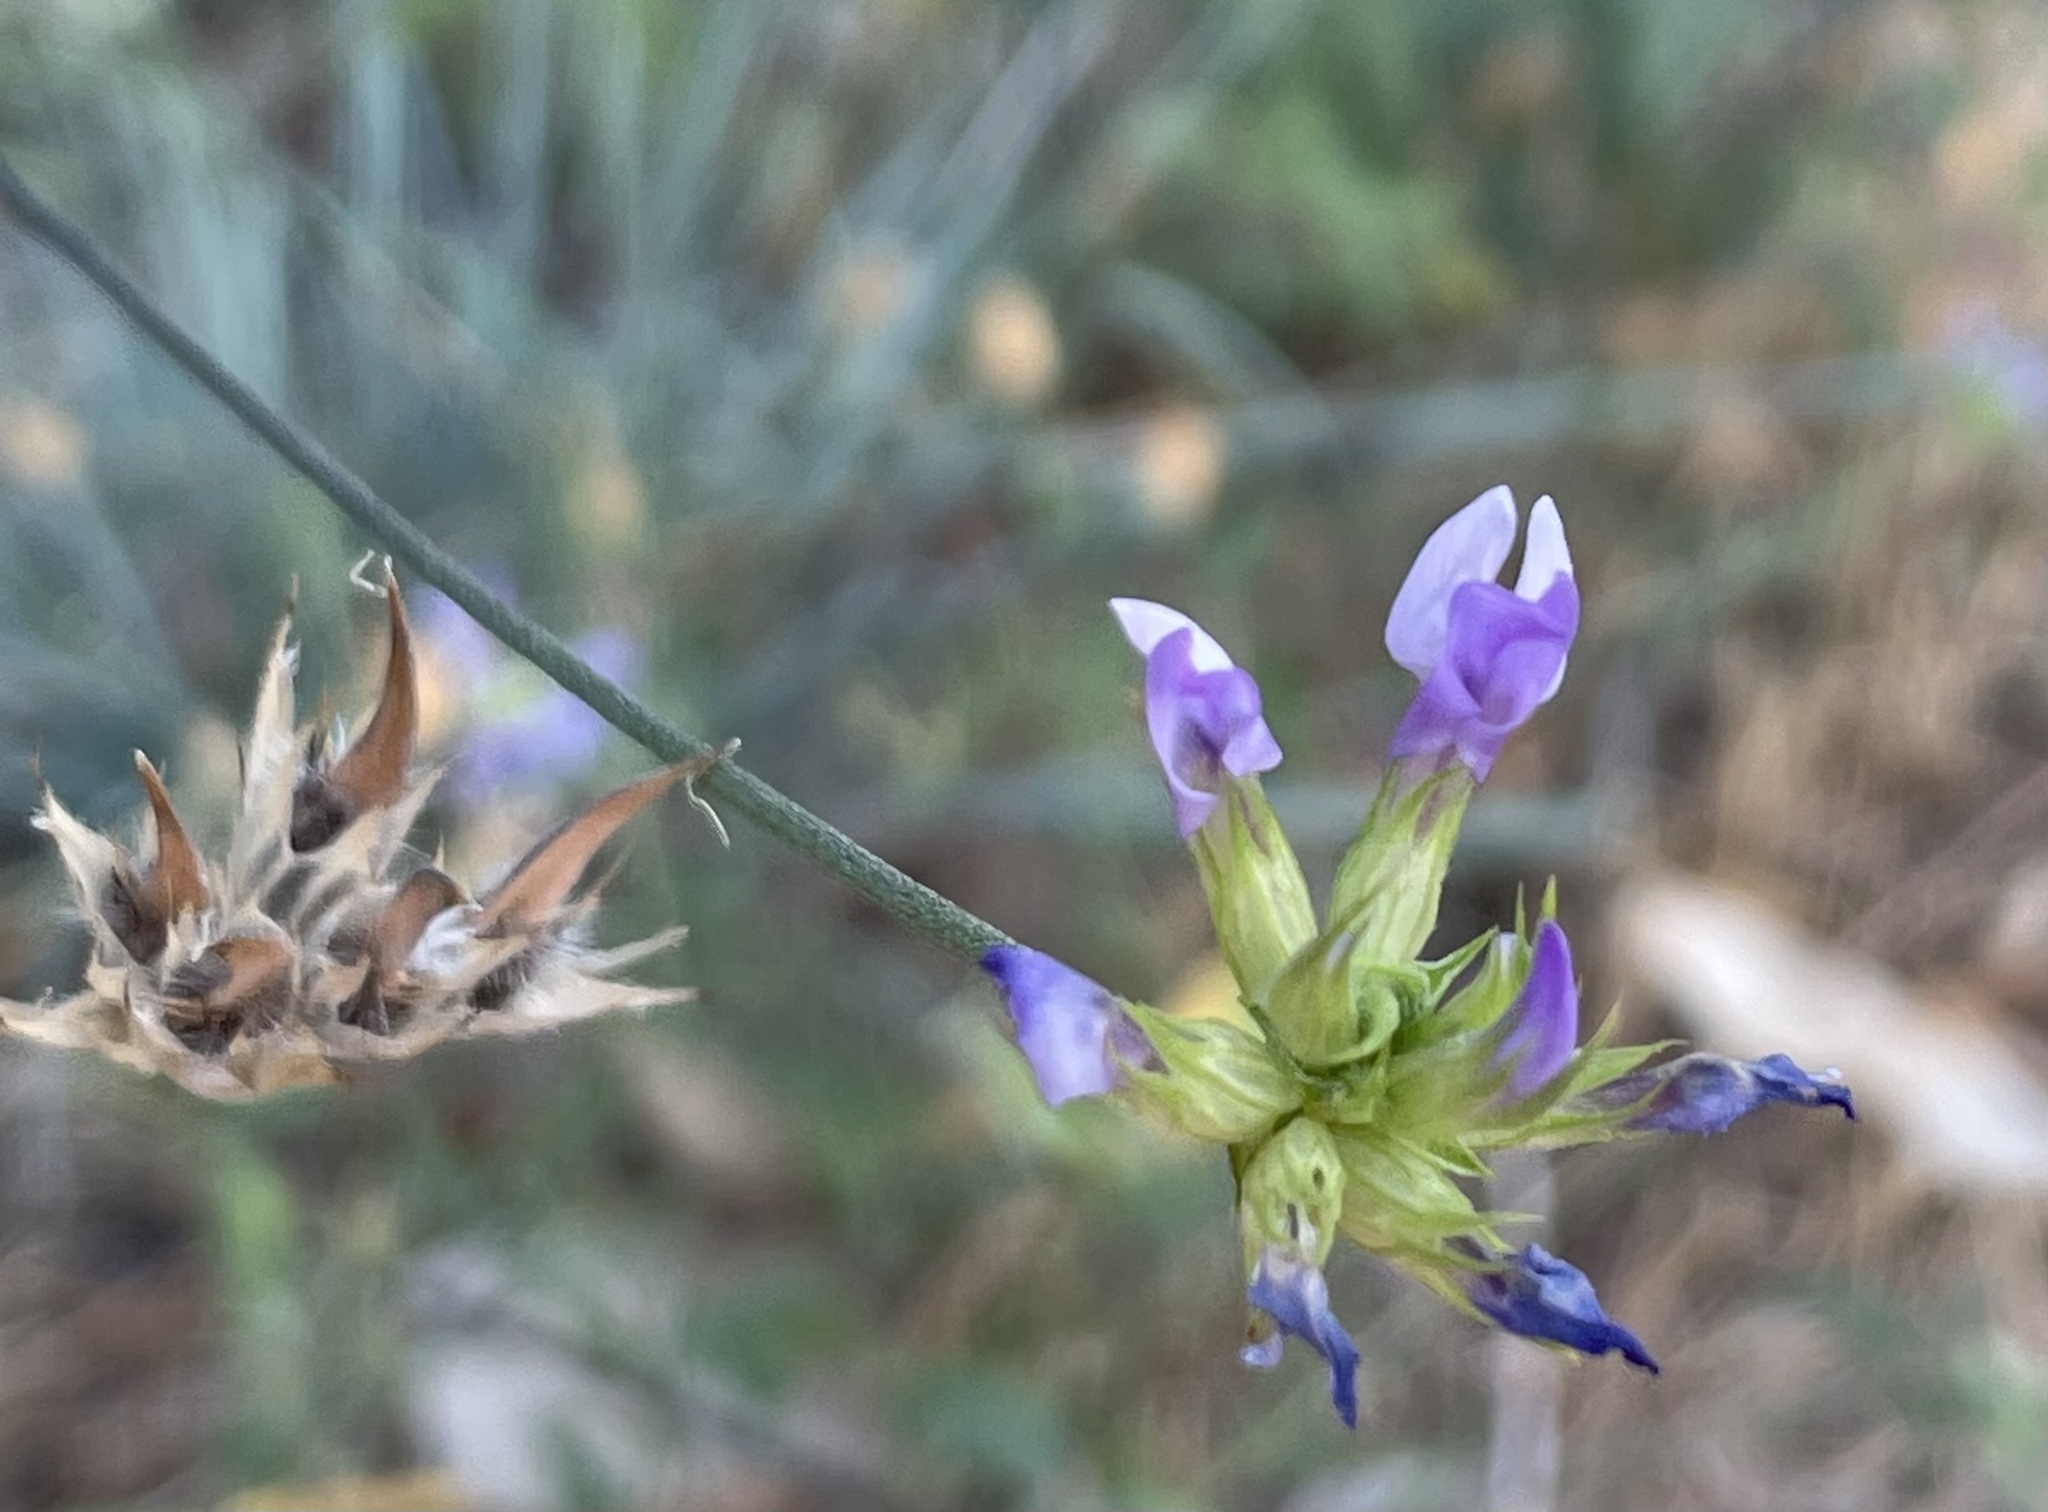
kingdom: Plantae
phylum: Tracheophyta
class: Magnoliopsida
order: Fabales
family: Fabaceae
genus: Bituminaria
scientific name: Bituminaria bituminosa
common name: Arabian pea
